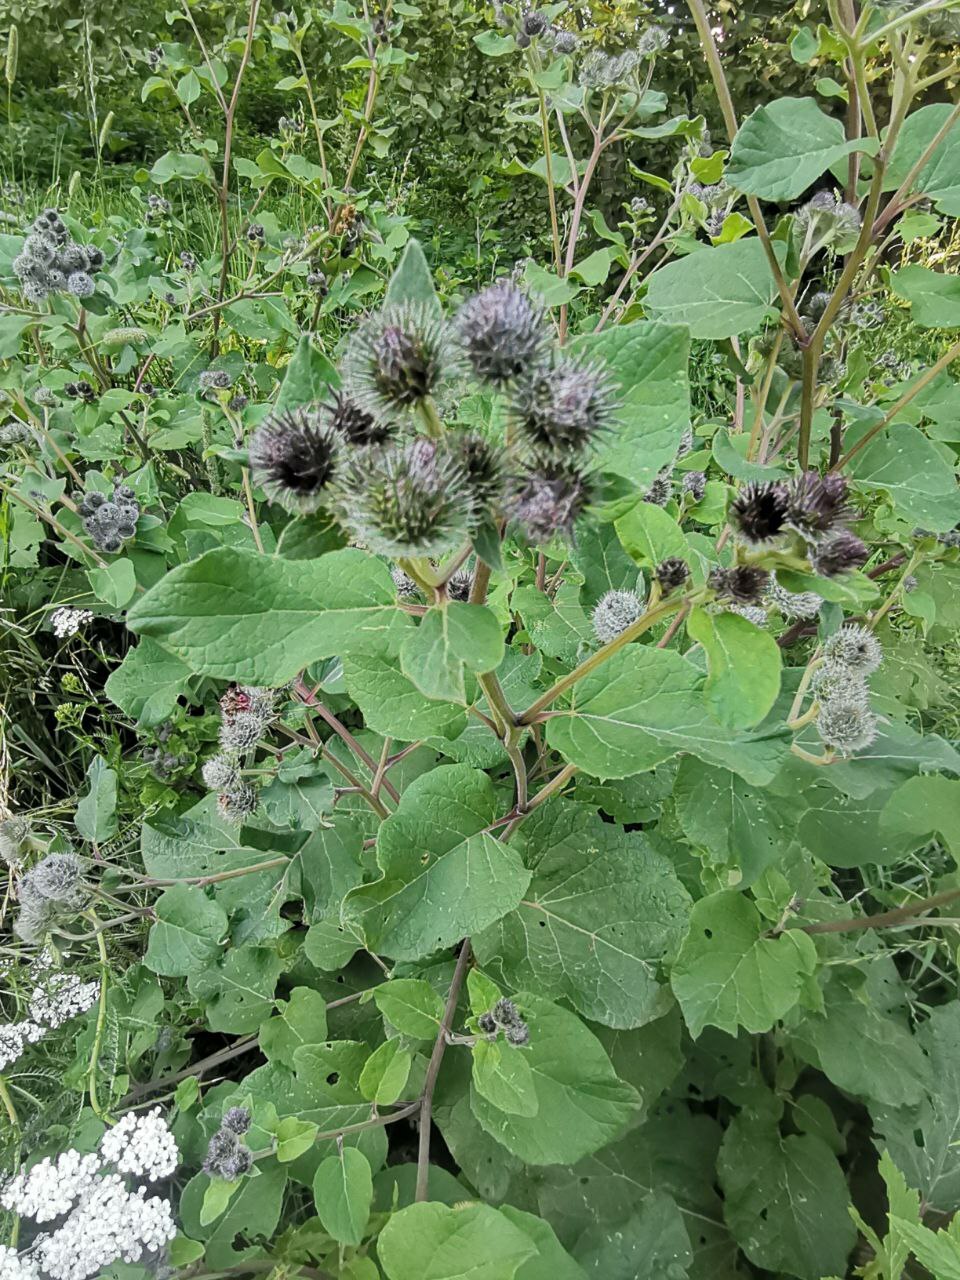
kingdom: Plantae
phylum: Tracheophyta
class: Magnoliopsida
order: Asterales
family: Asteraceae
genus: Arctium
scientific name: Arctium tomentosum
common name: Woolly burdock
